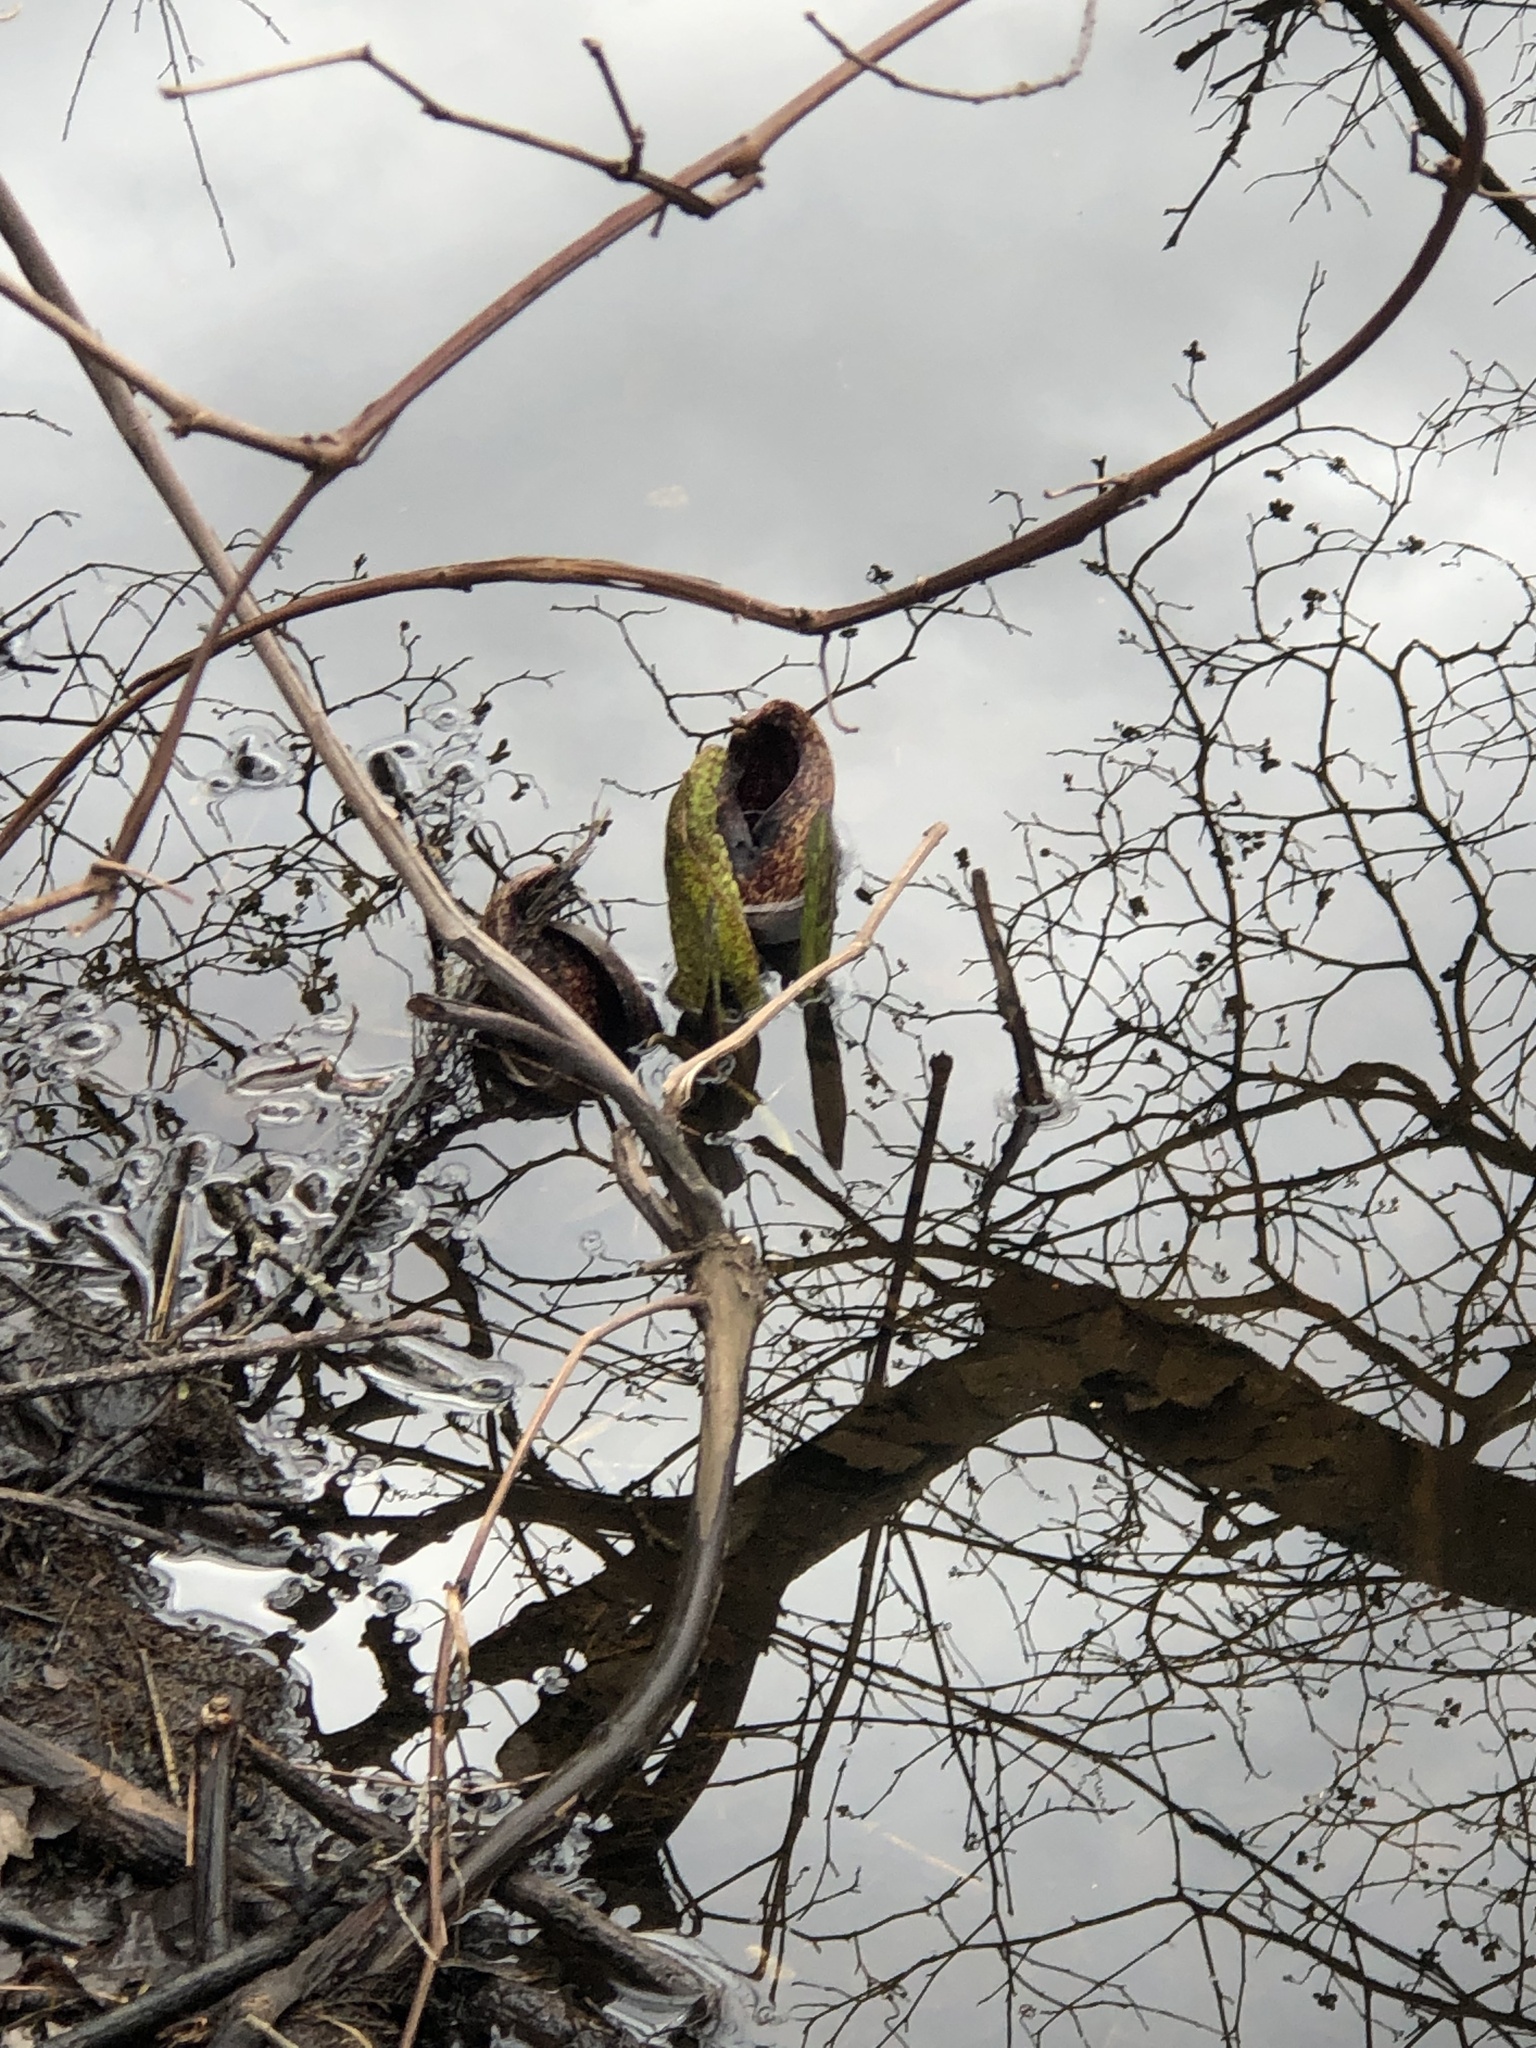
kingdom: Plantae
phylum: Tracheophyta
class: Liliopsida
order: Alismatales
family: Araceae
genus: Symplocarpus
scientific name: Symplocarpus foetidus
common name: Eastern skunk cabbage
